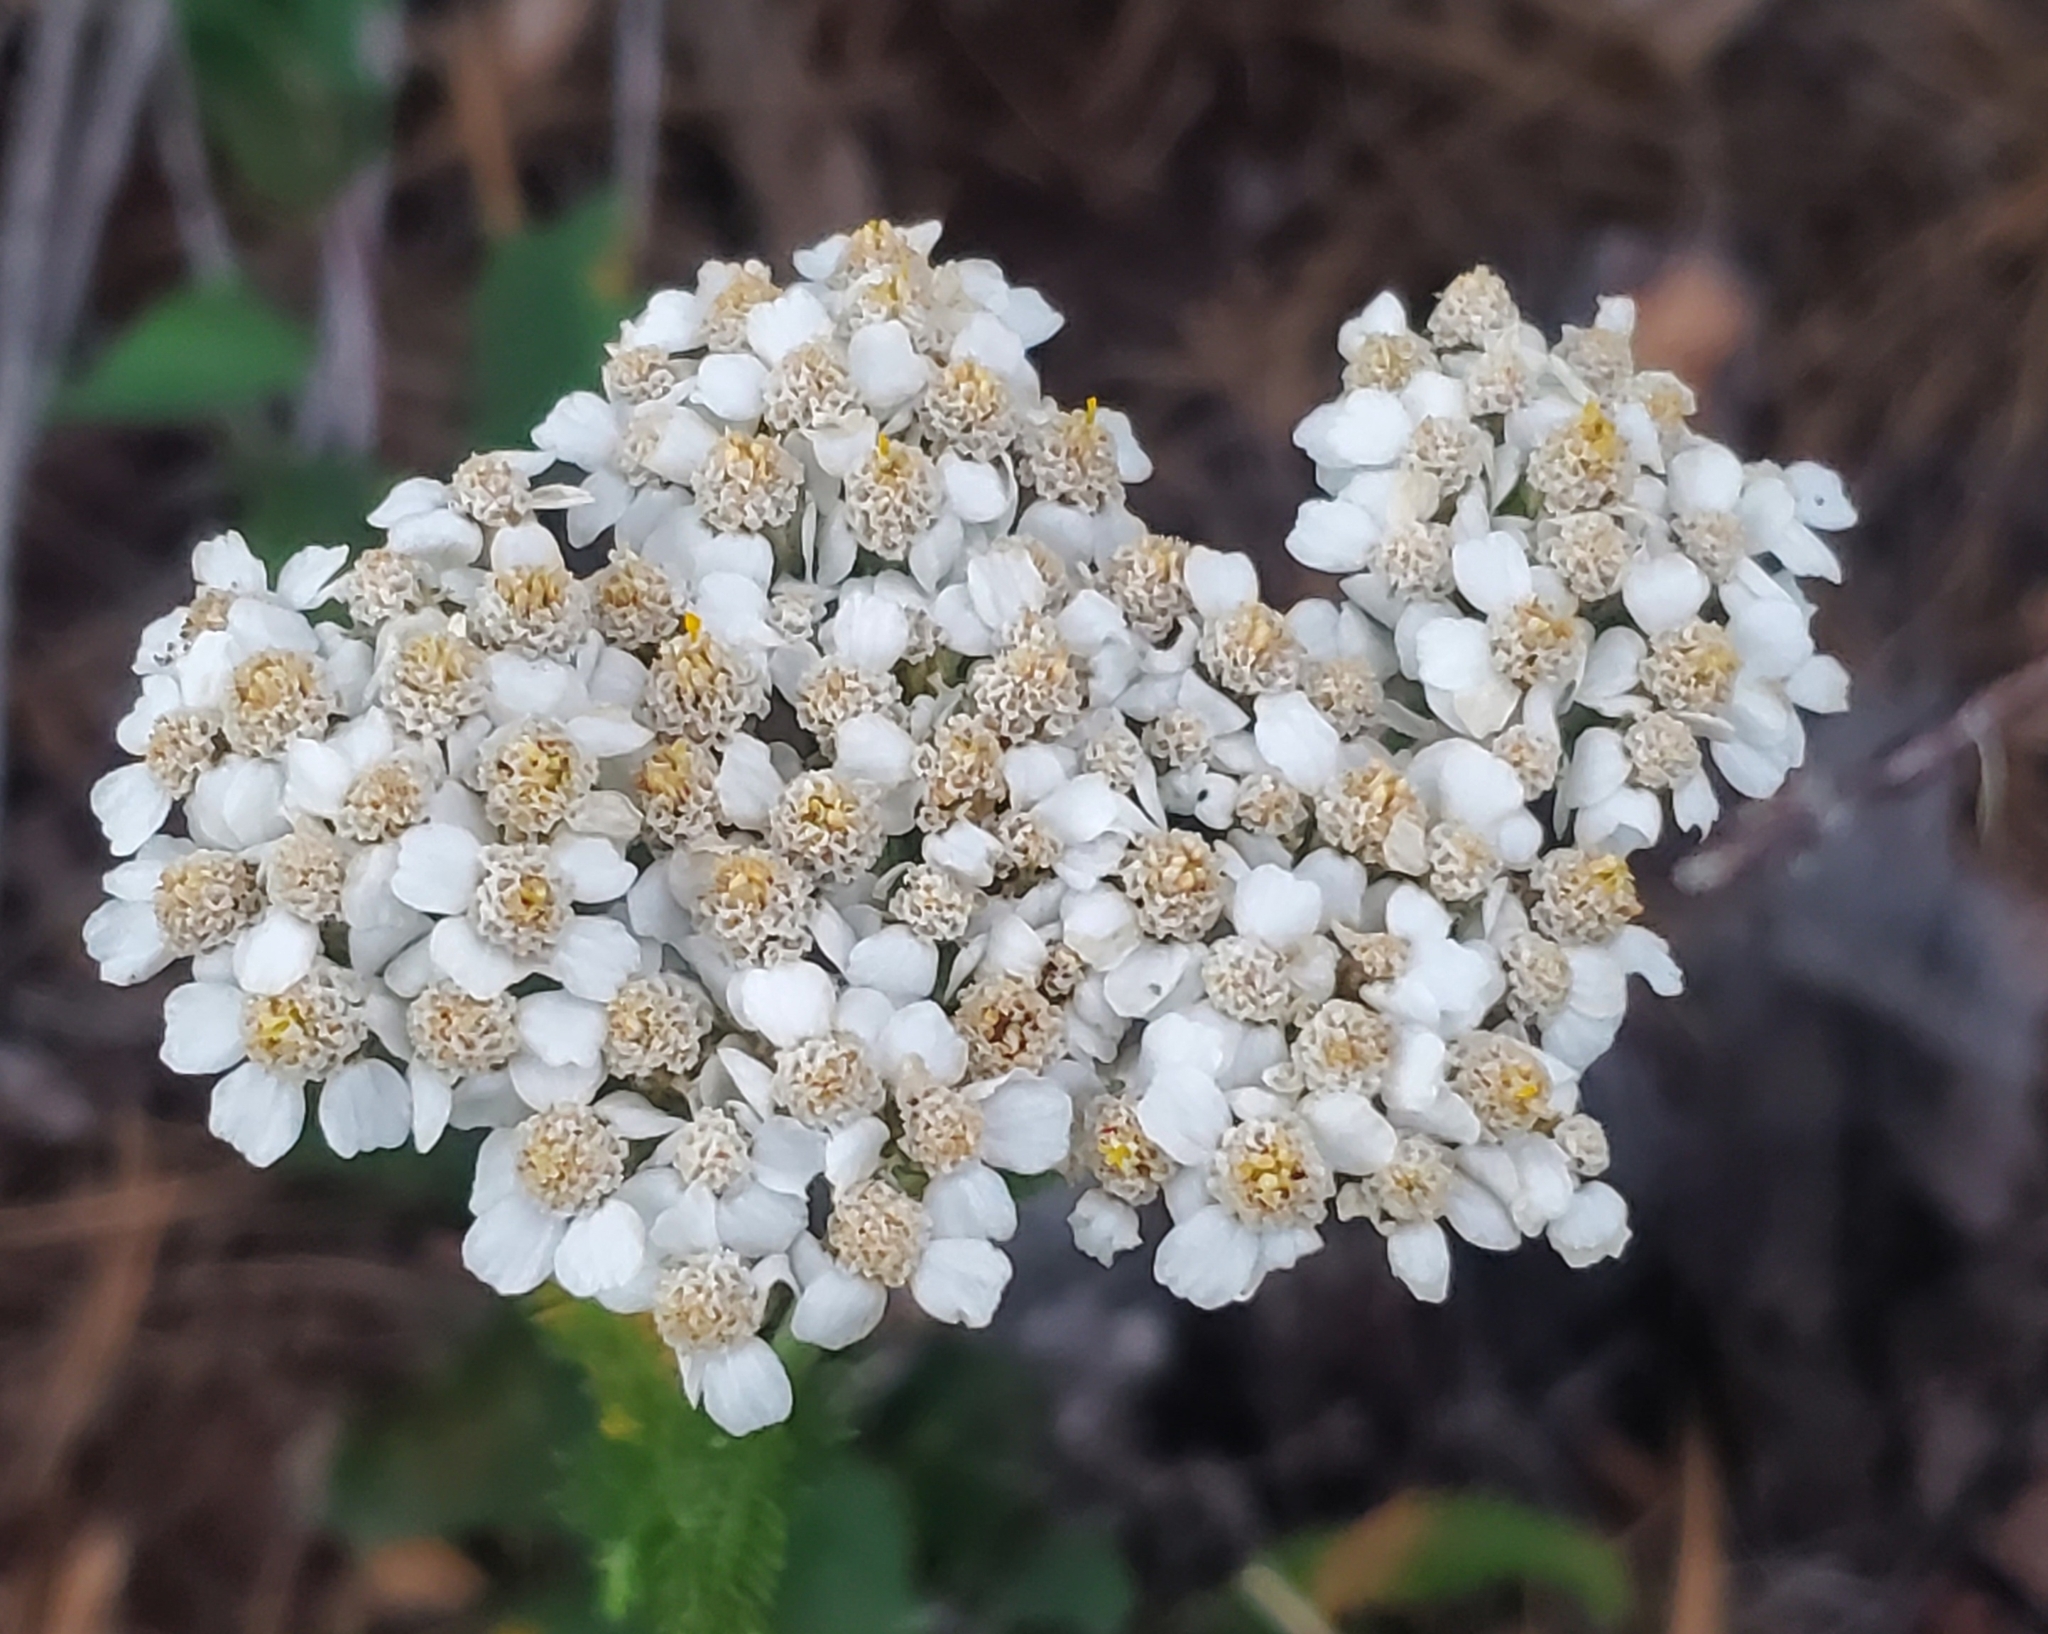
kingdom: Plantae
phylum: Tracheophyta
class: Magnoliopsida
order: Asterales
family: Asteraceae
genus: Achillea
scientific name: Achillea millefolium
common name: Yarrow
